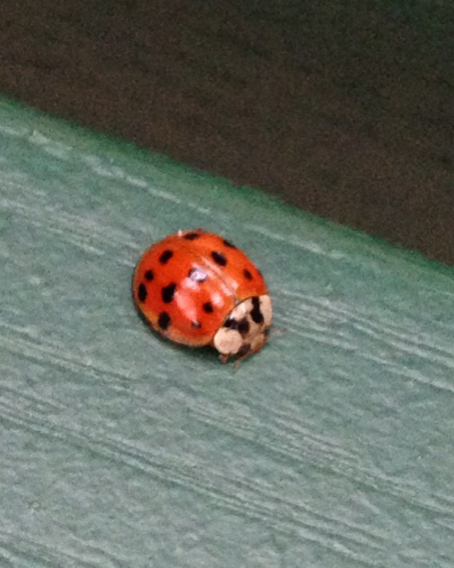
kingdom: Animalia
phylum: Arthropoda
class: Insecta
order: Coleoptera
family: Coccinellidae
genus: Harmonia
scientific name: Harmonia axyridis
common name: Harlequin ladybird
